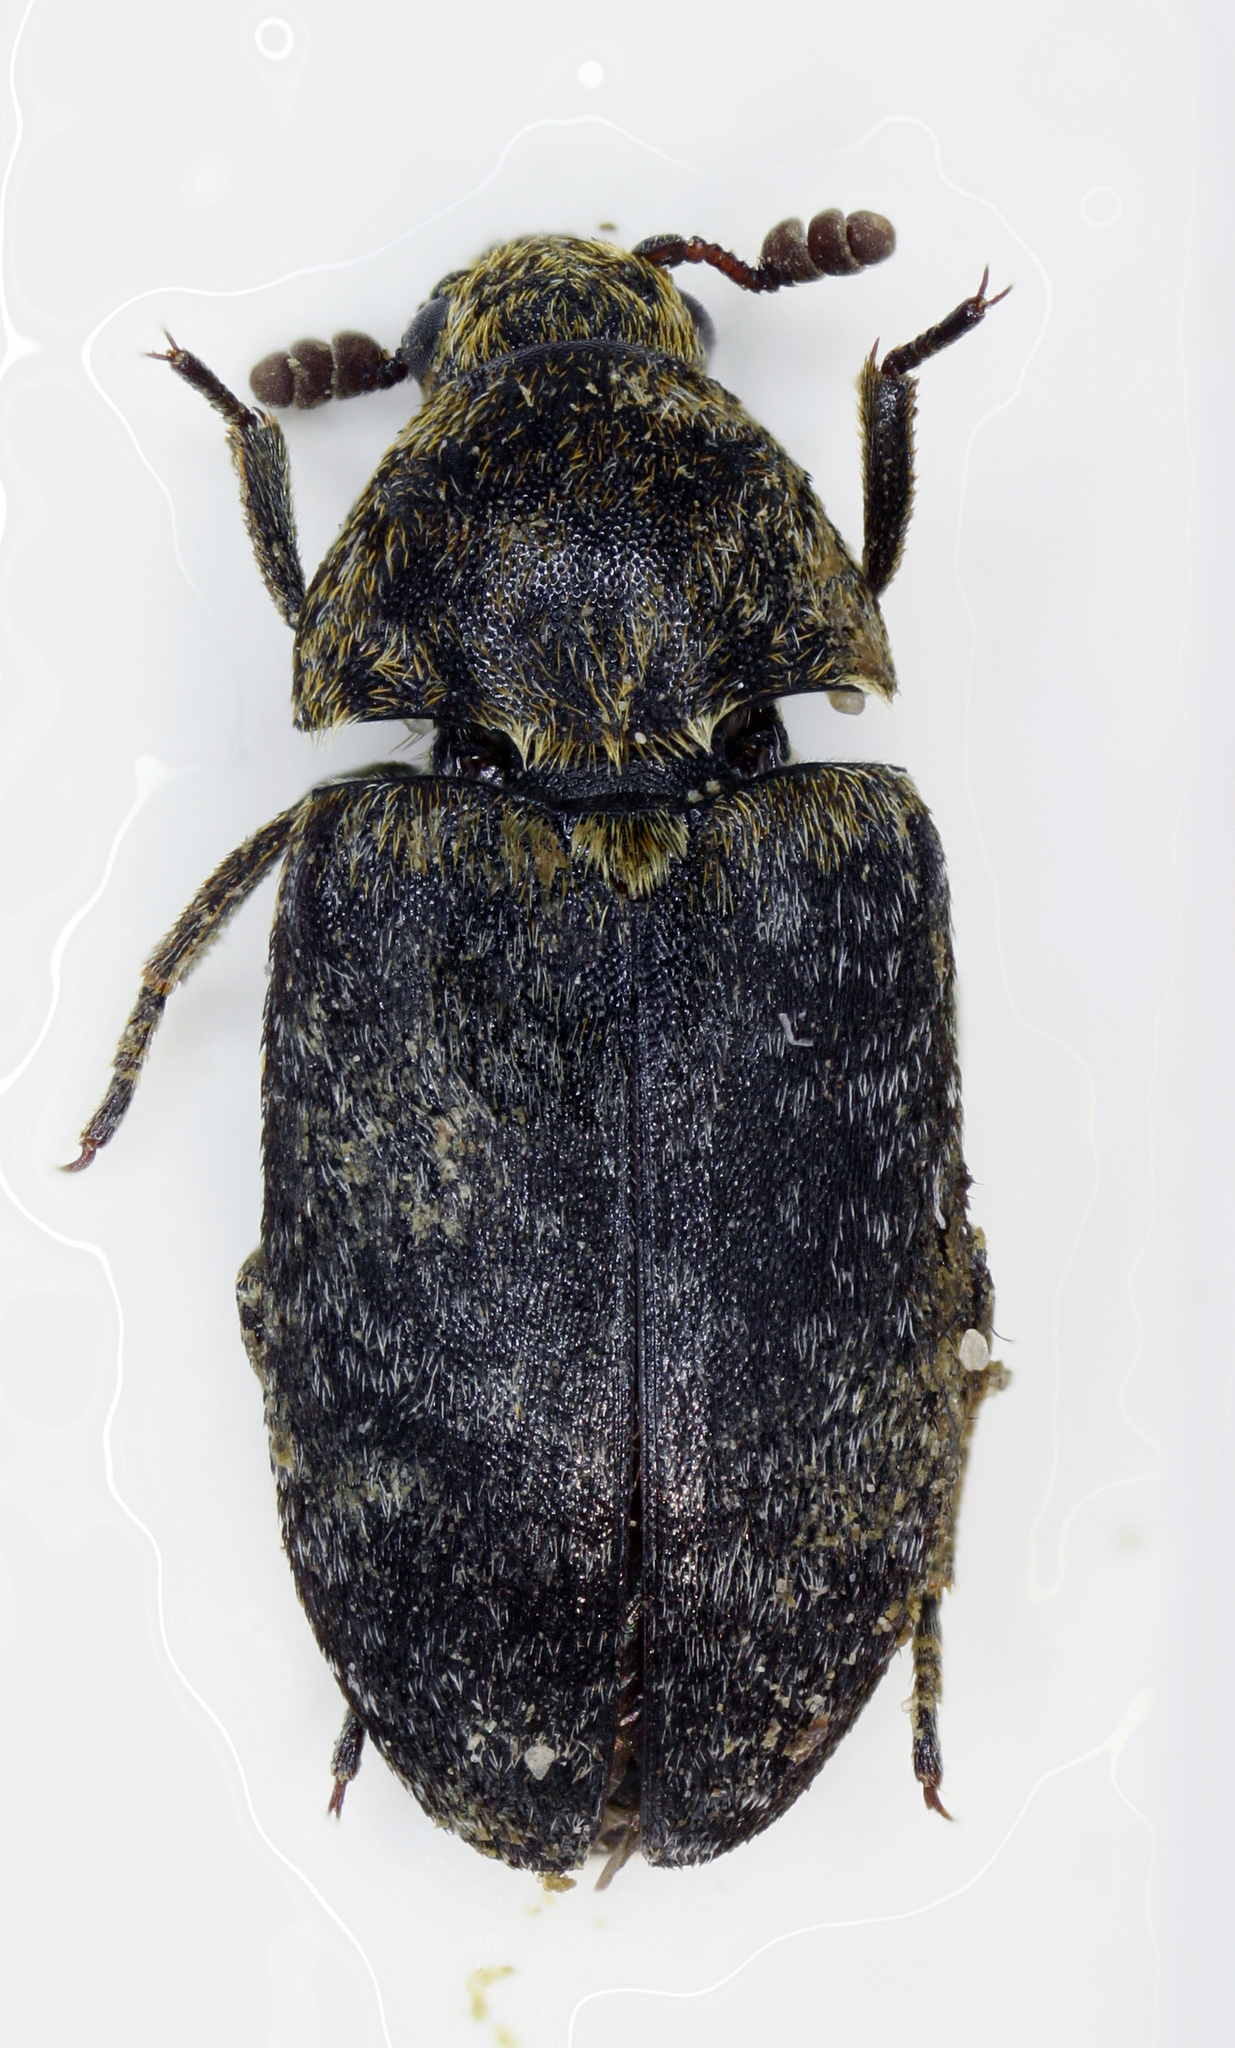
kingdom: Animalia
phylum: Arthropoda
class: Insecta
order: Coleoptera
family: Dermestidae
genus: Dermestes
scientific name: Dermestes undulatus
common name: Wavy carpet beetle
